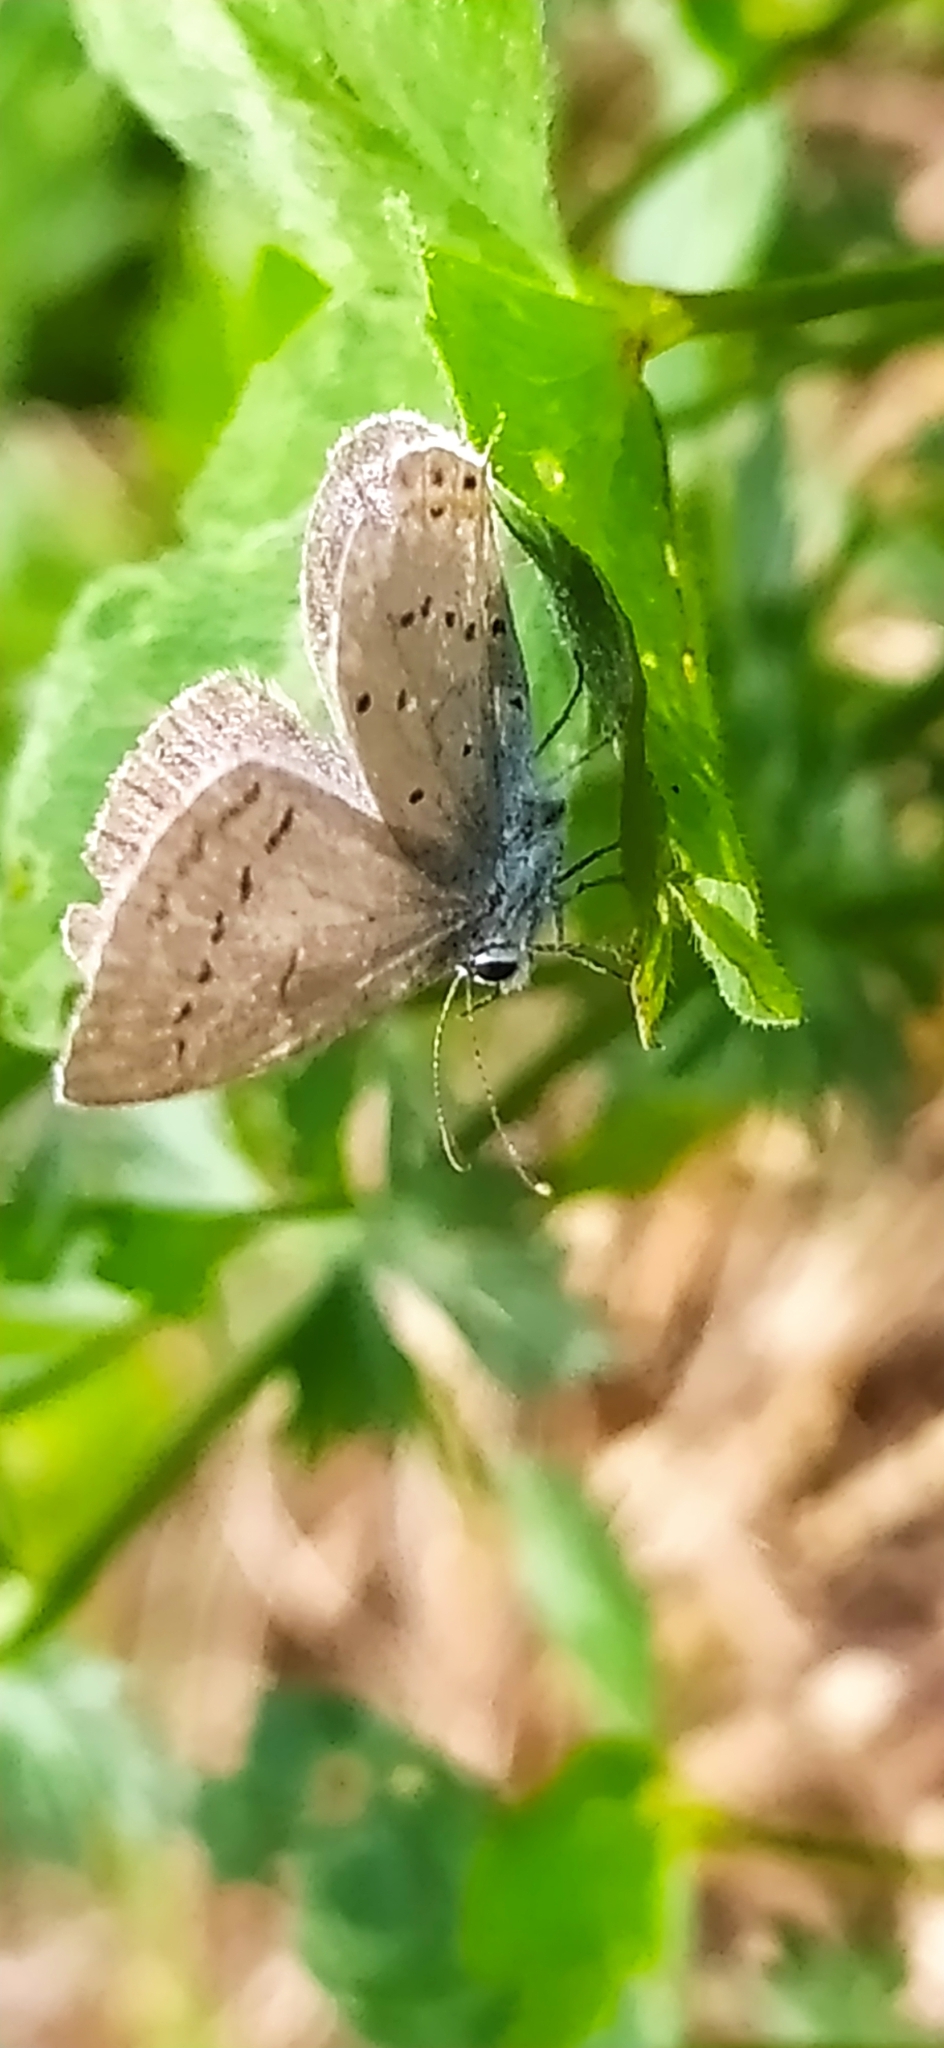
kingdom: Animalia
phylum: Arthropoda
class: Insecta
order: Lepidoptera
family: Lycaenidae
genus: Elkalyce
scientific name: Elkalyce argiades
